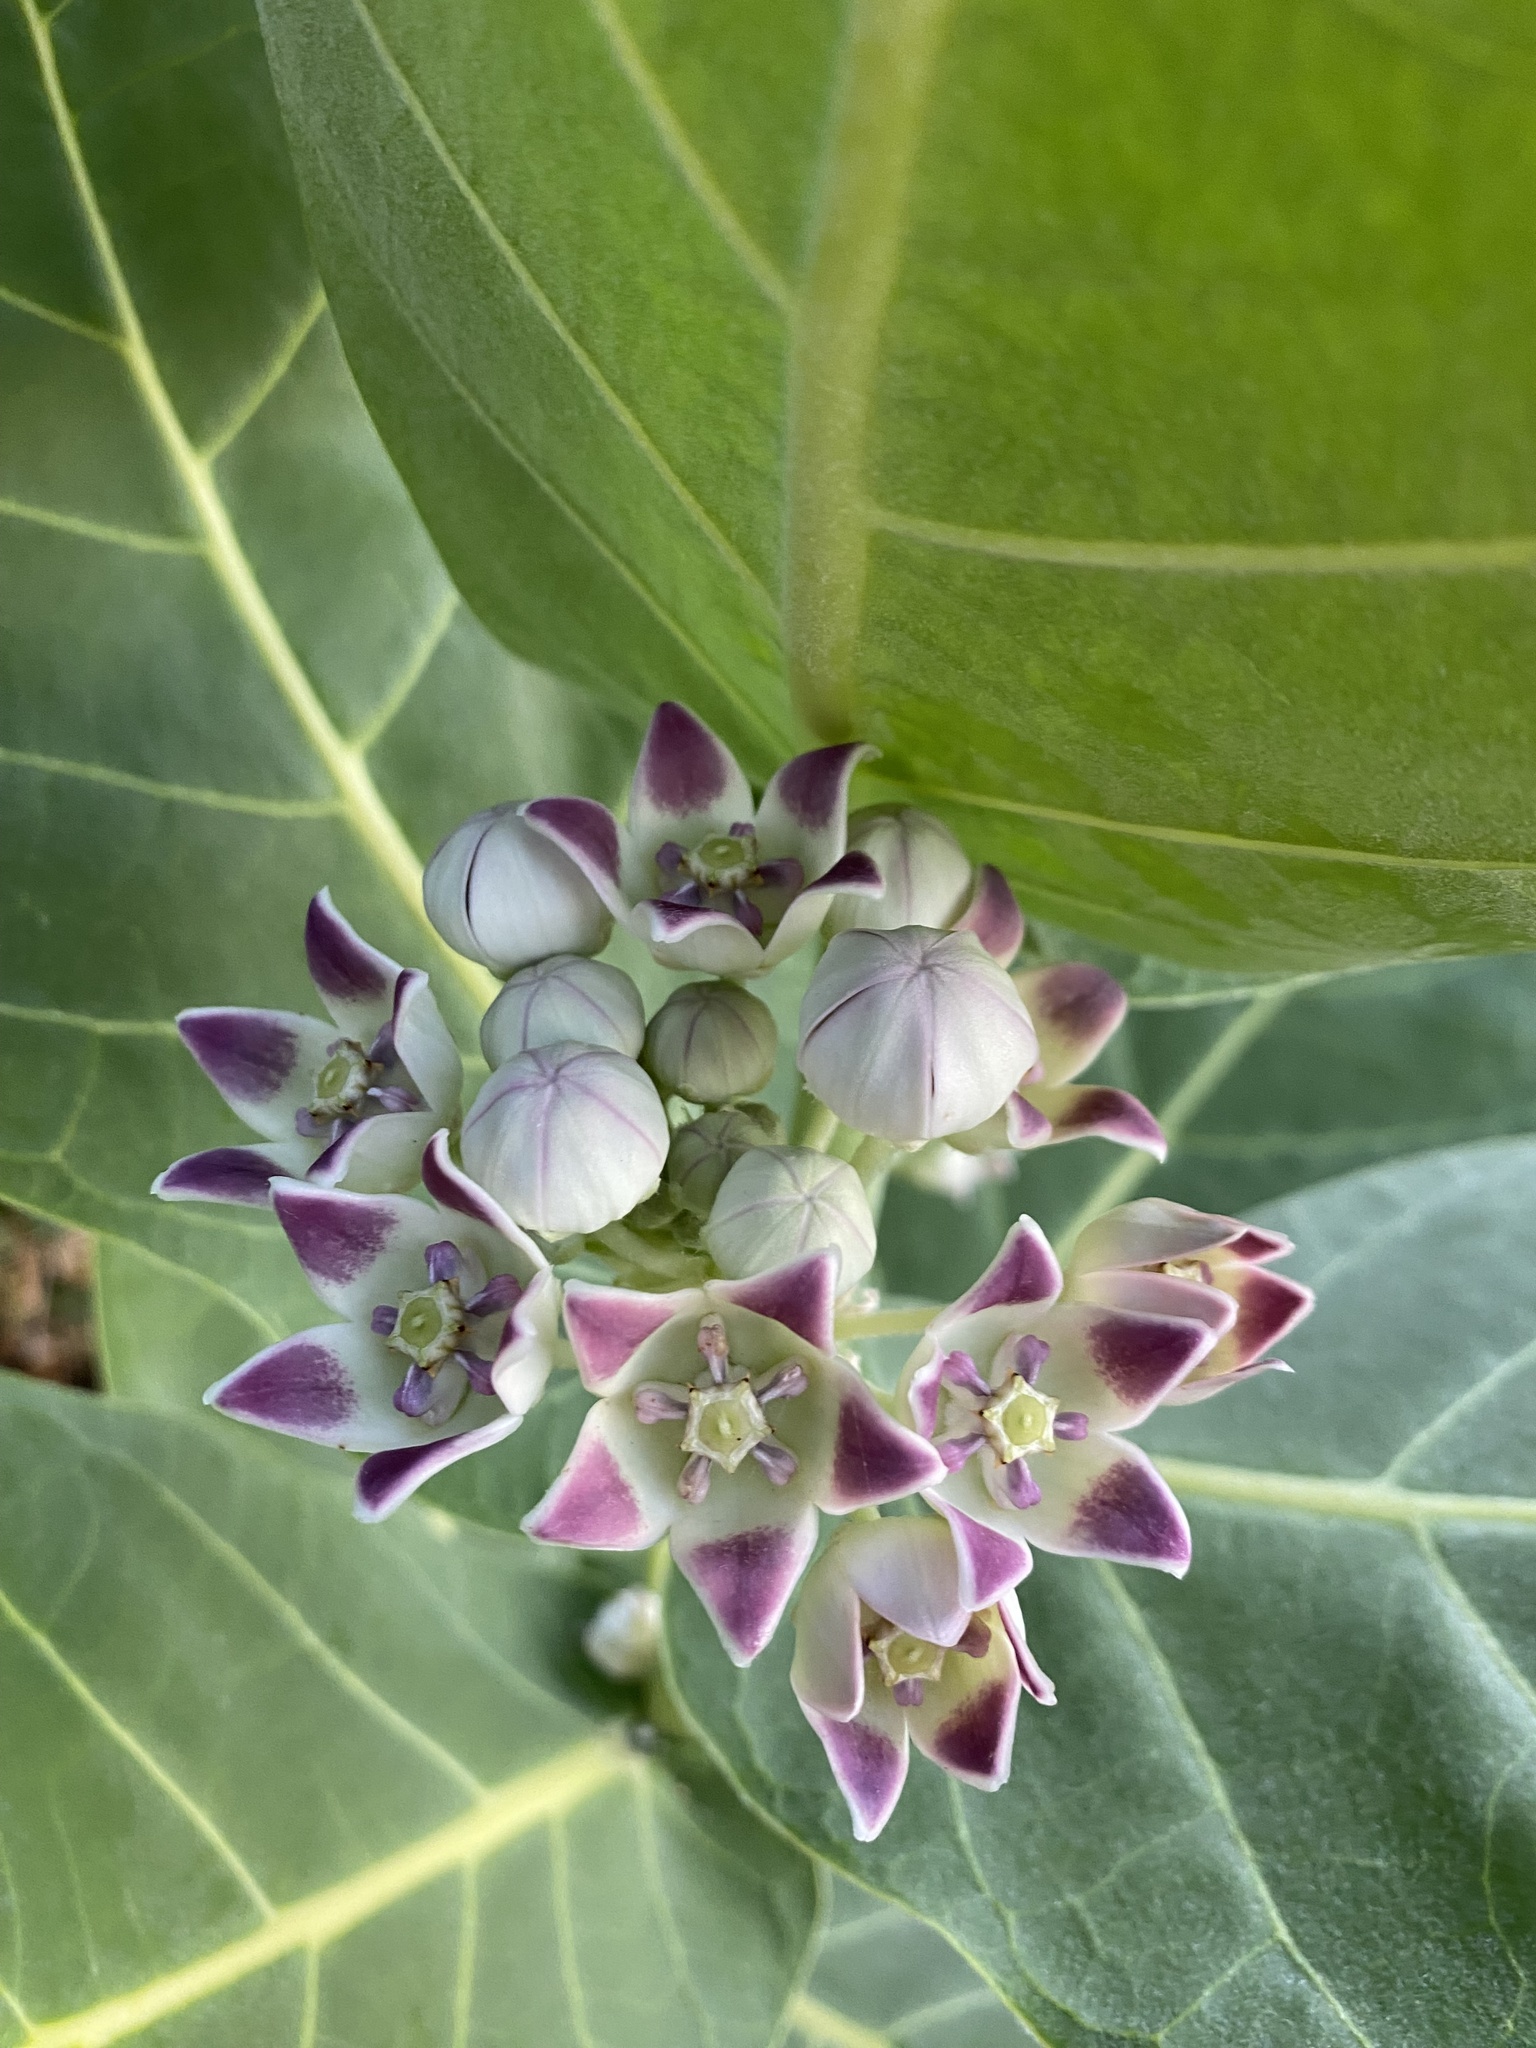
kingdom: Plantae
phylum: Tracheophyta
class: Magnoliopsida
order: Gentianales
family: Apocynaceae
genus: Calotropis
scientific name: Calotropis procera
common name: Roostertree
